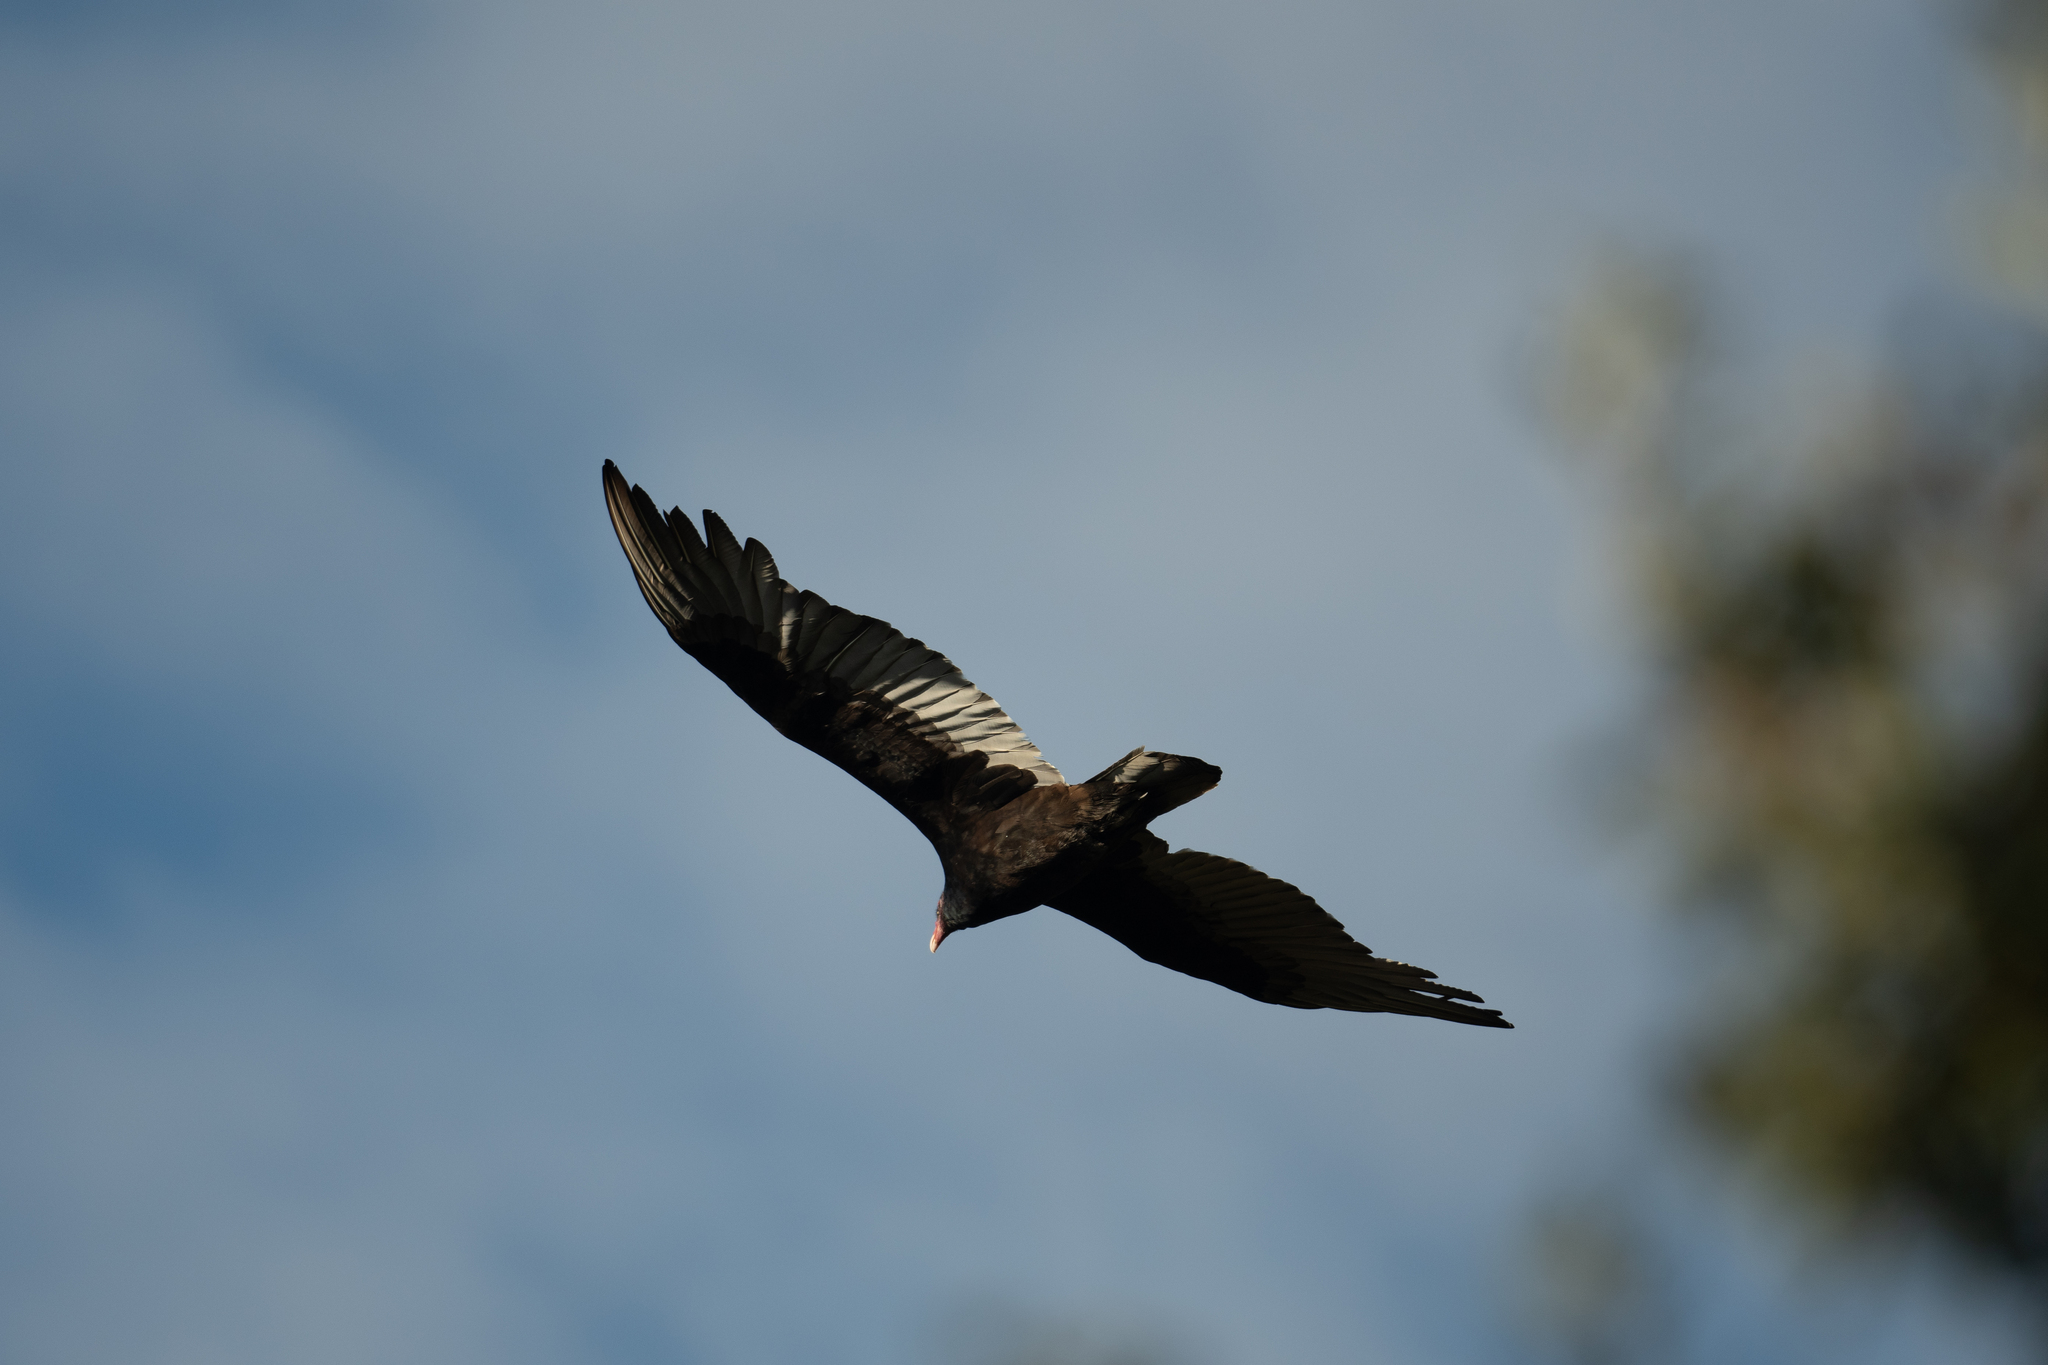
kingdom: Animalia
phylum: Chordata
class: Aves
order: Accipitriformes
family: Cathartidae
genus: Cathartes
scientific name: Cathartes aura
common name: Turkey vulture
